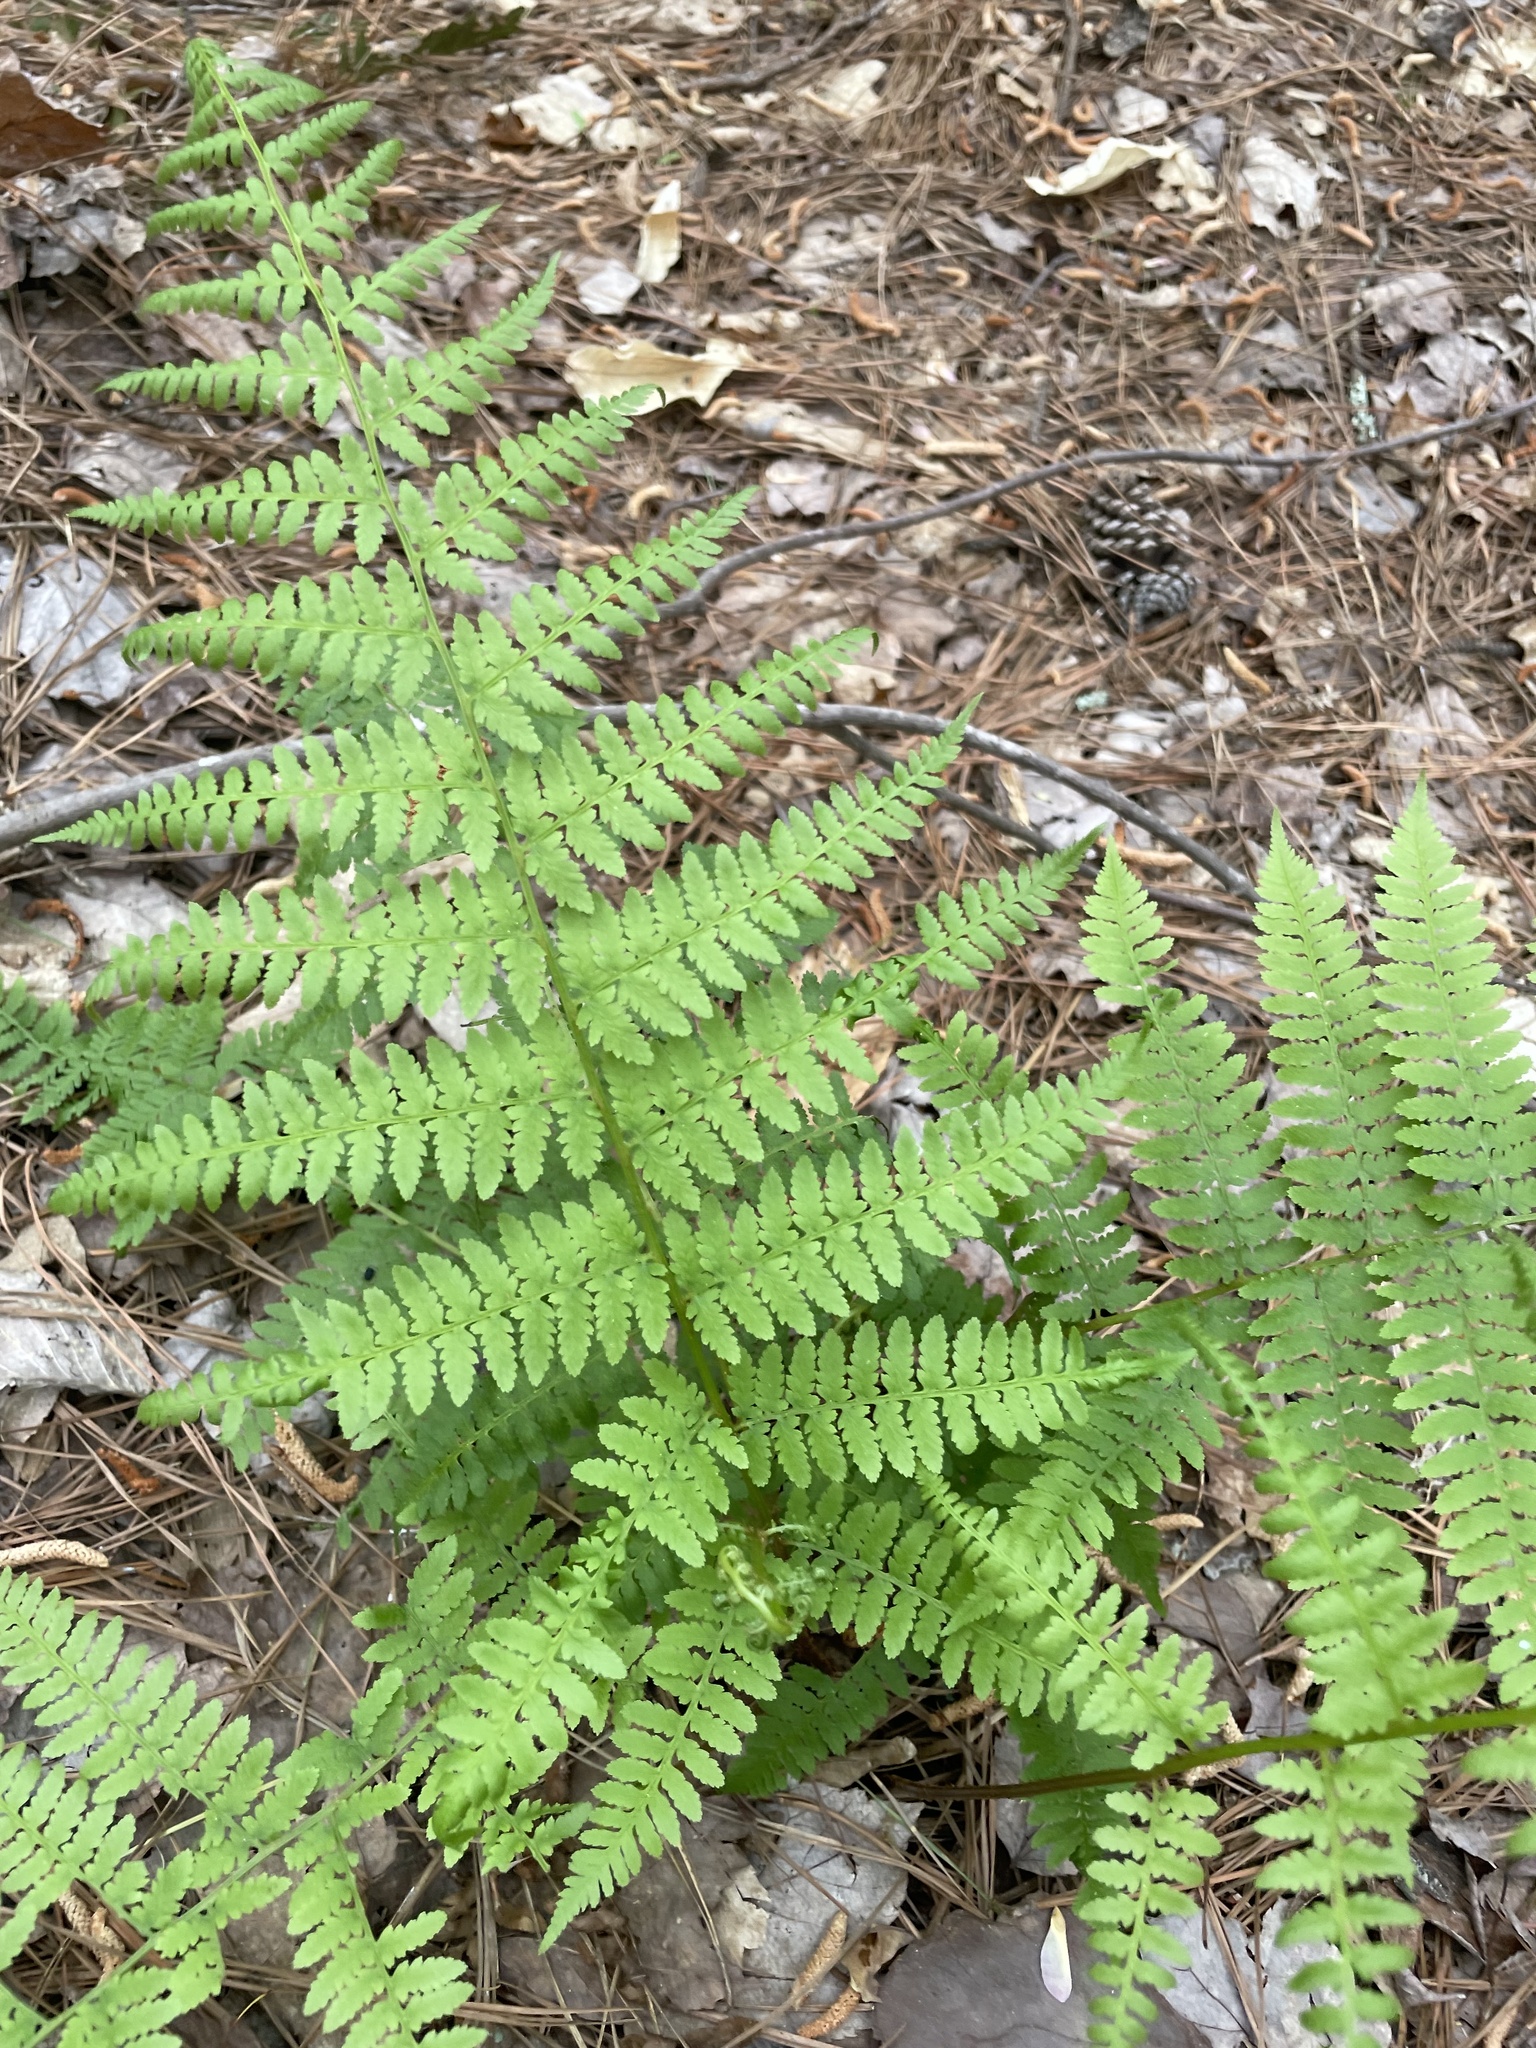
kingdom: Plantae
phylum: Tracheophyta
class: Polypodiopsida
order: Polypodiales
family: Athyriaceae
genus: Athyrium
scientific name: Athyrium asplenioides
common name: Southern lady fern
